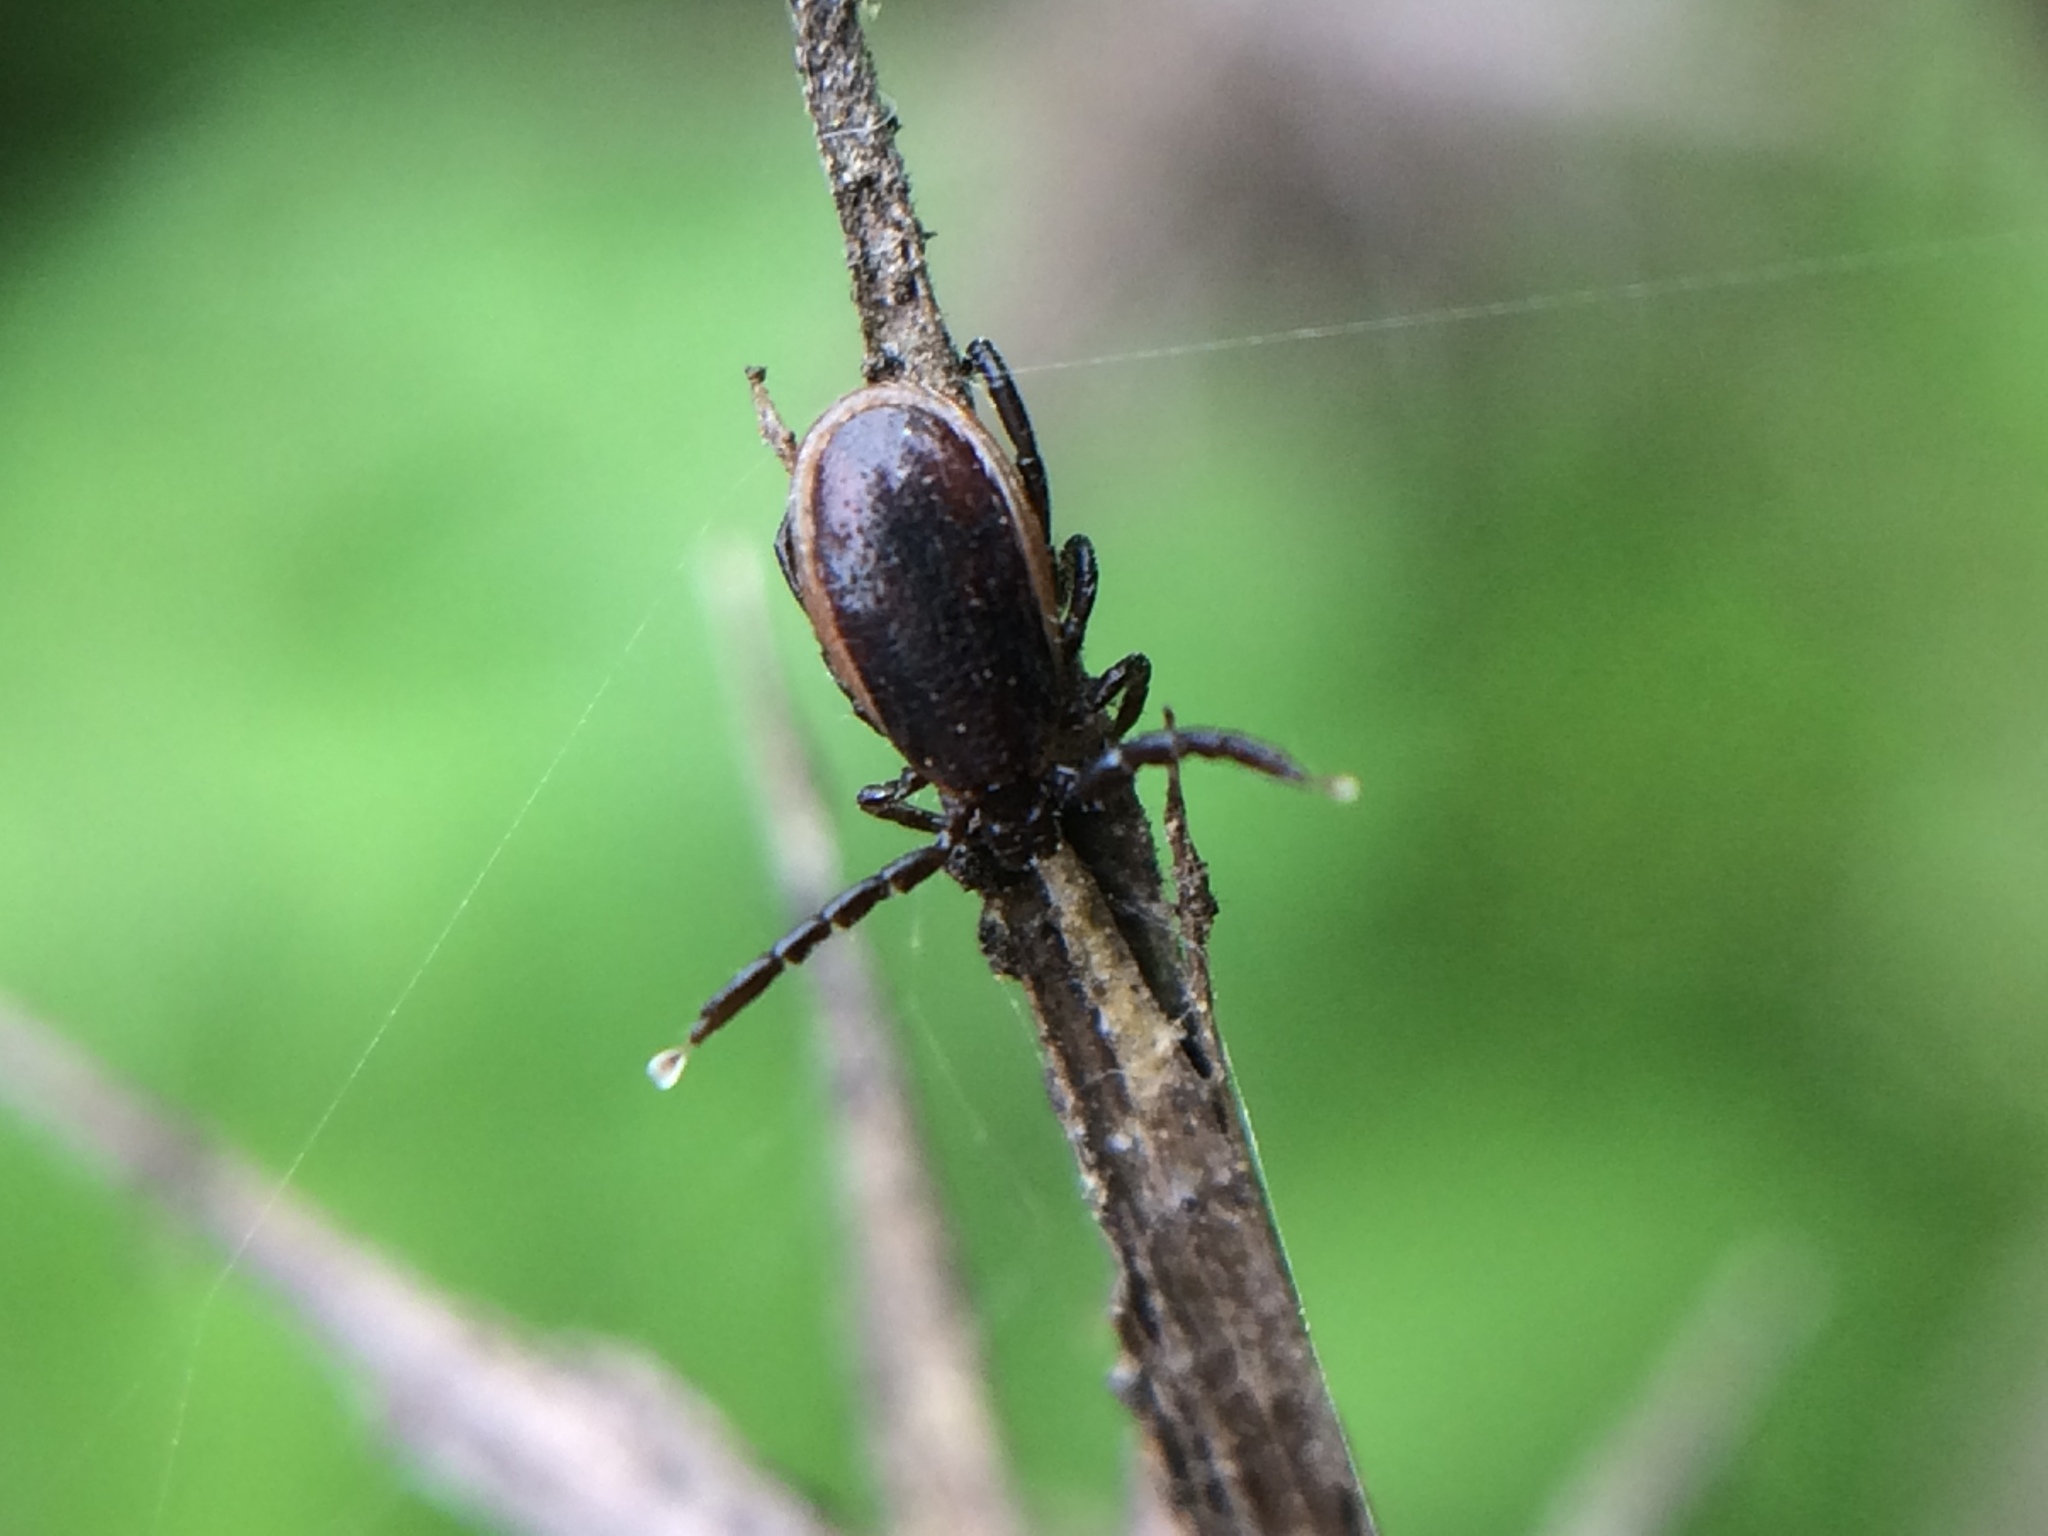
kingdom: Animalia
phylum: Arthropoda
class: Arachnida
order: Ixodida
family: Ixodidae
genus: Ixodes
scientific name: Ixodes pacificus
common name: California black-legged tick
